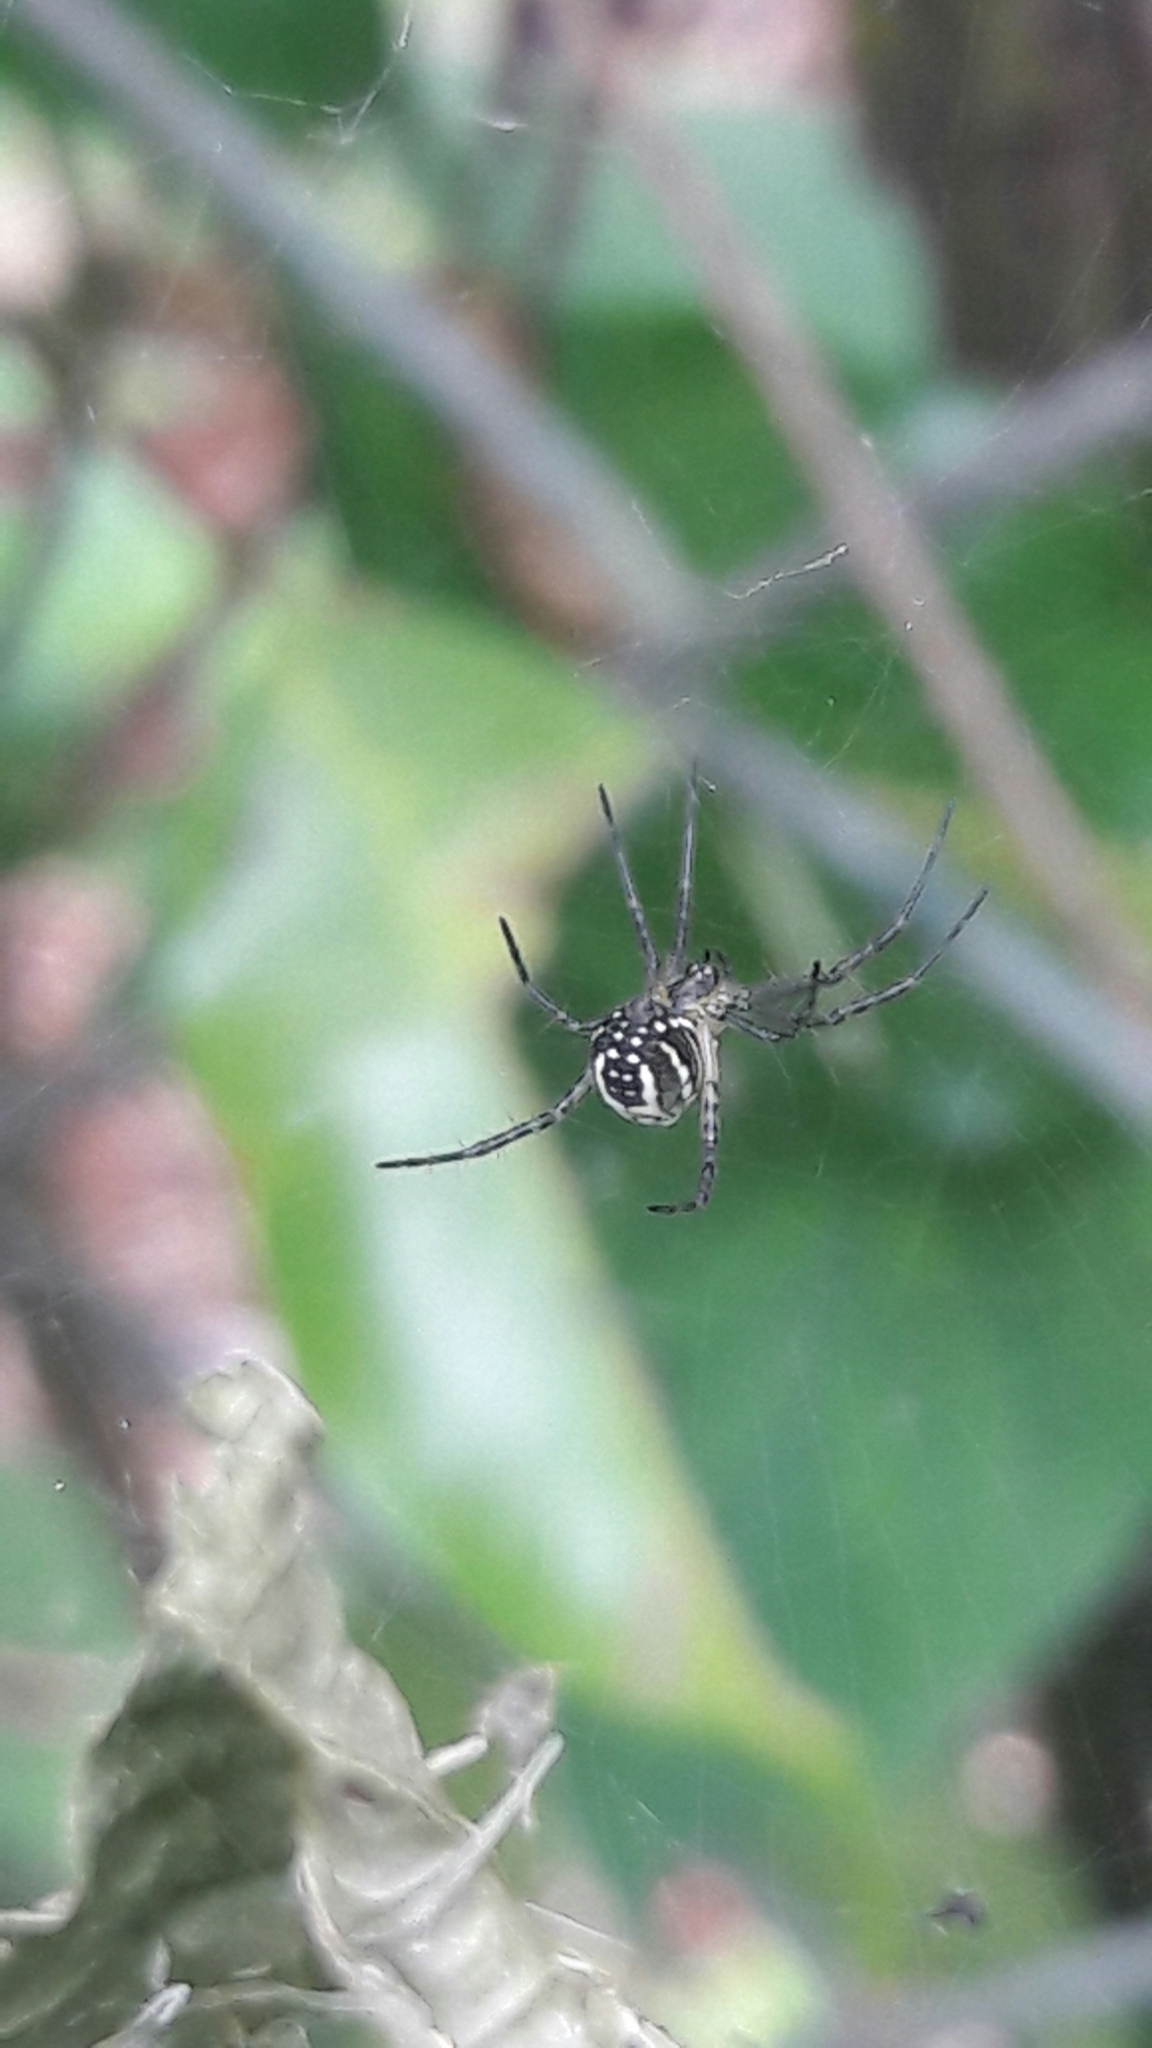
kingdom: Animalia
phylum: Arthropoda
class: Arachnida
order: Araneae
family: Araneidae
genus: Manogea
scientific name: Manogea porracea
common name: Orb weavers
